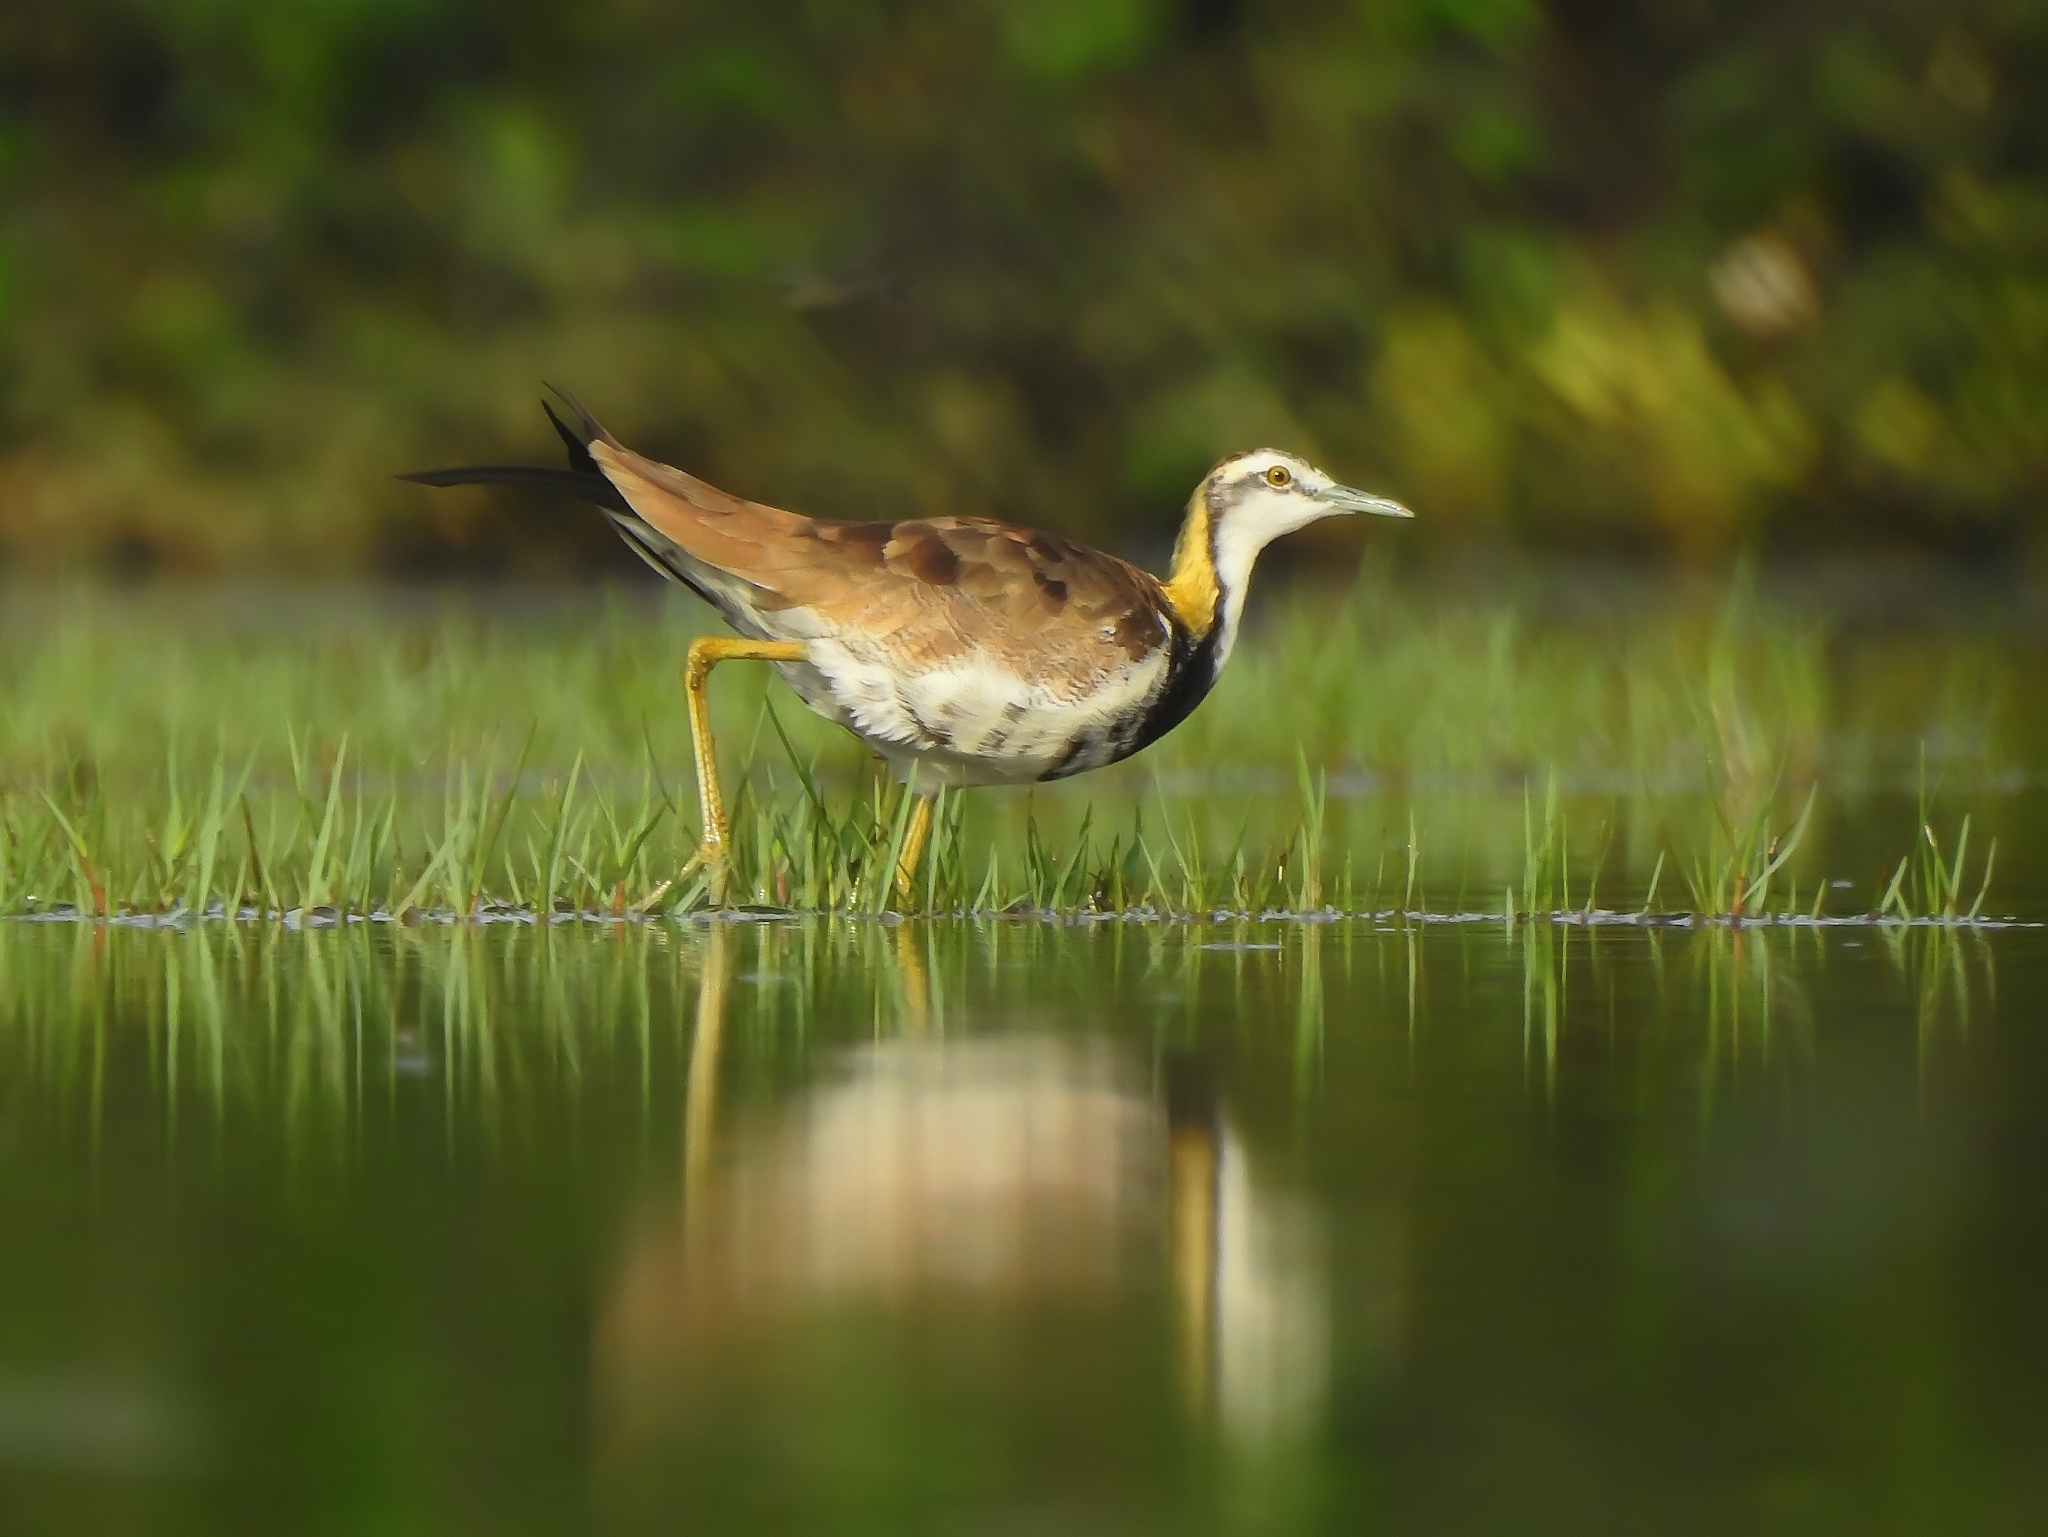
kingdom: Animalia
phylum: Chordata
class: Aves
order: Charadriiformes
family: Jacanidae
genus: Hydrophasianus
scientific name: Hydrophasianus chirurgus
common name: Pheasant-tailed jacana
